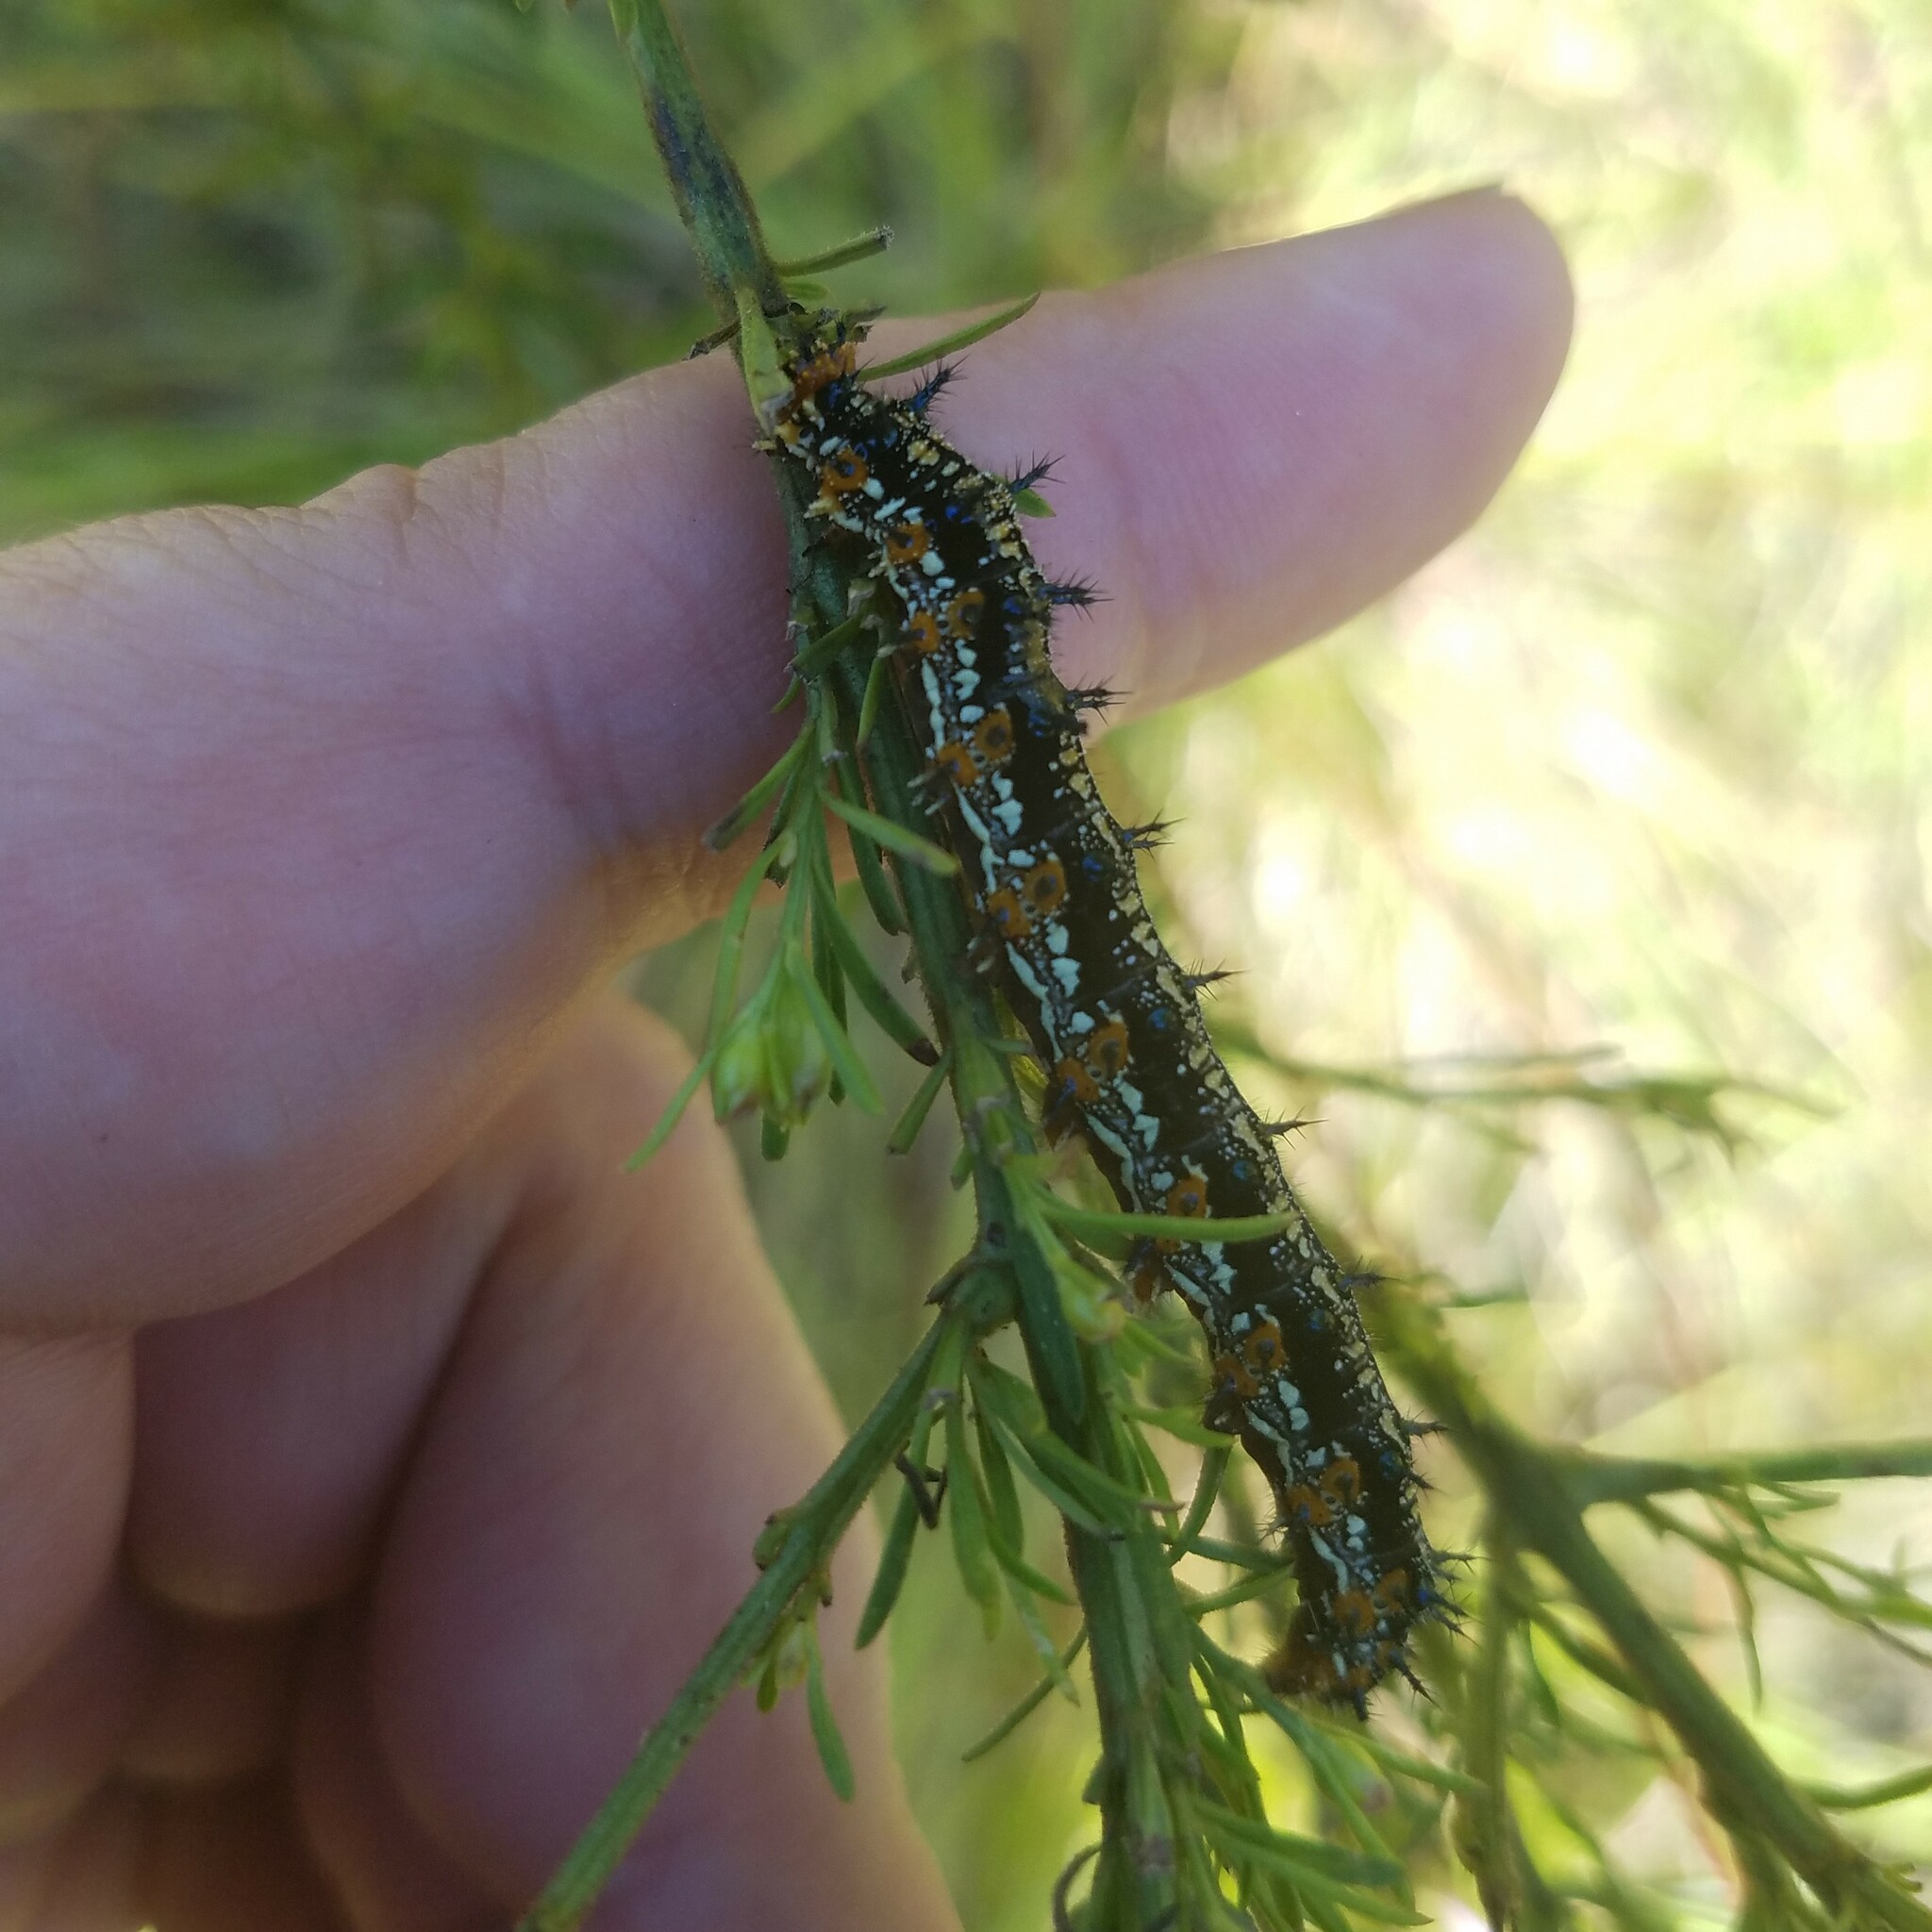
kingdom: Animalia
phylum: Arthropoda
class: Insecta
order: Lepidoptera
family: Nymphalidae
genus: Junonia
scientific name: Junonia coenia
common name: Common buckeye
